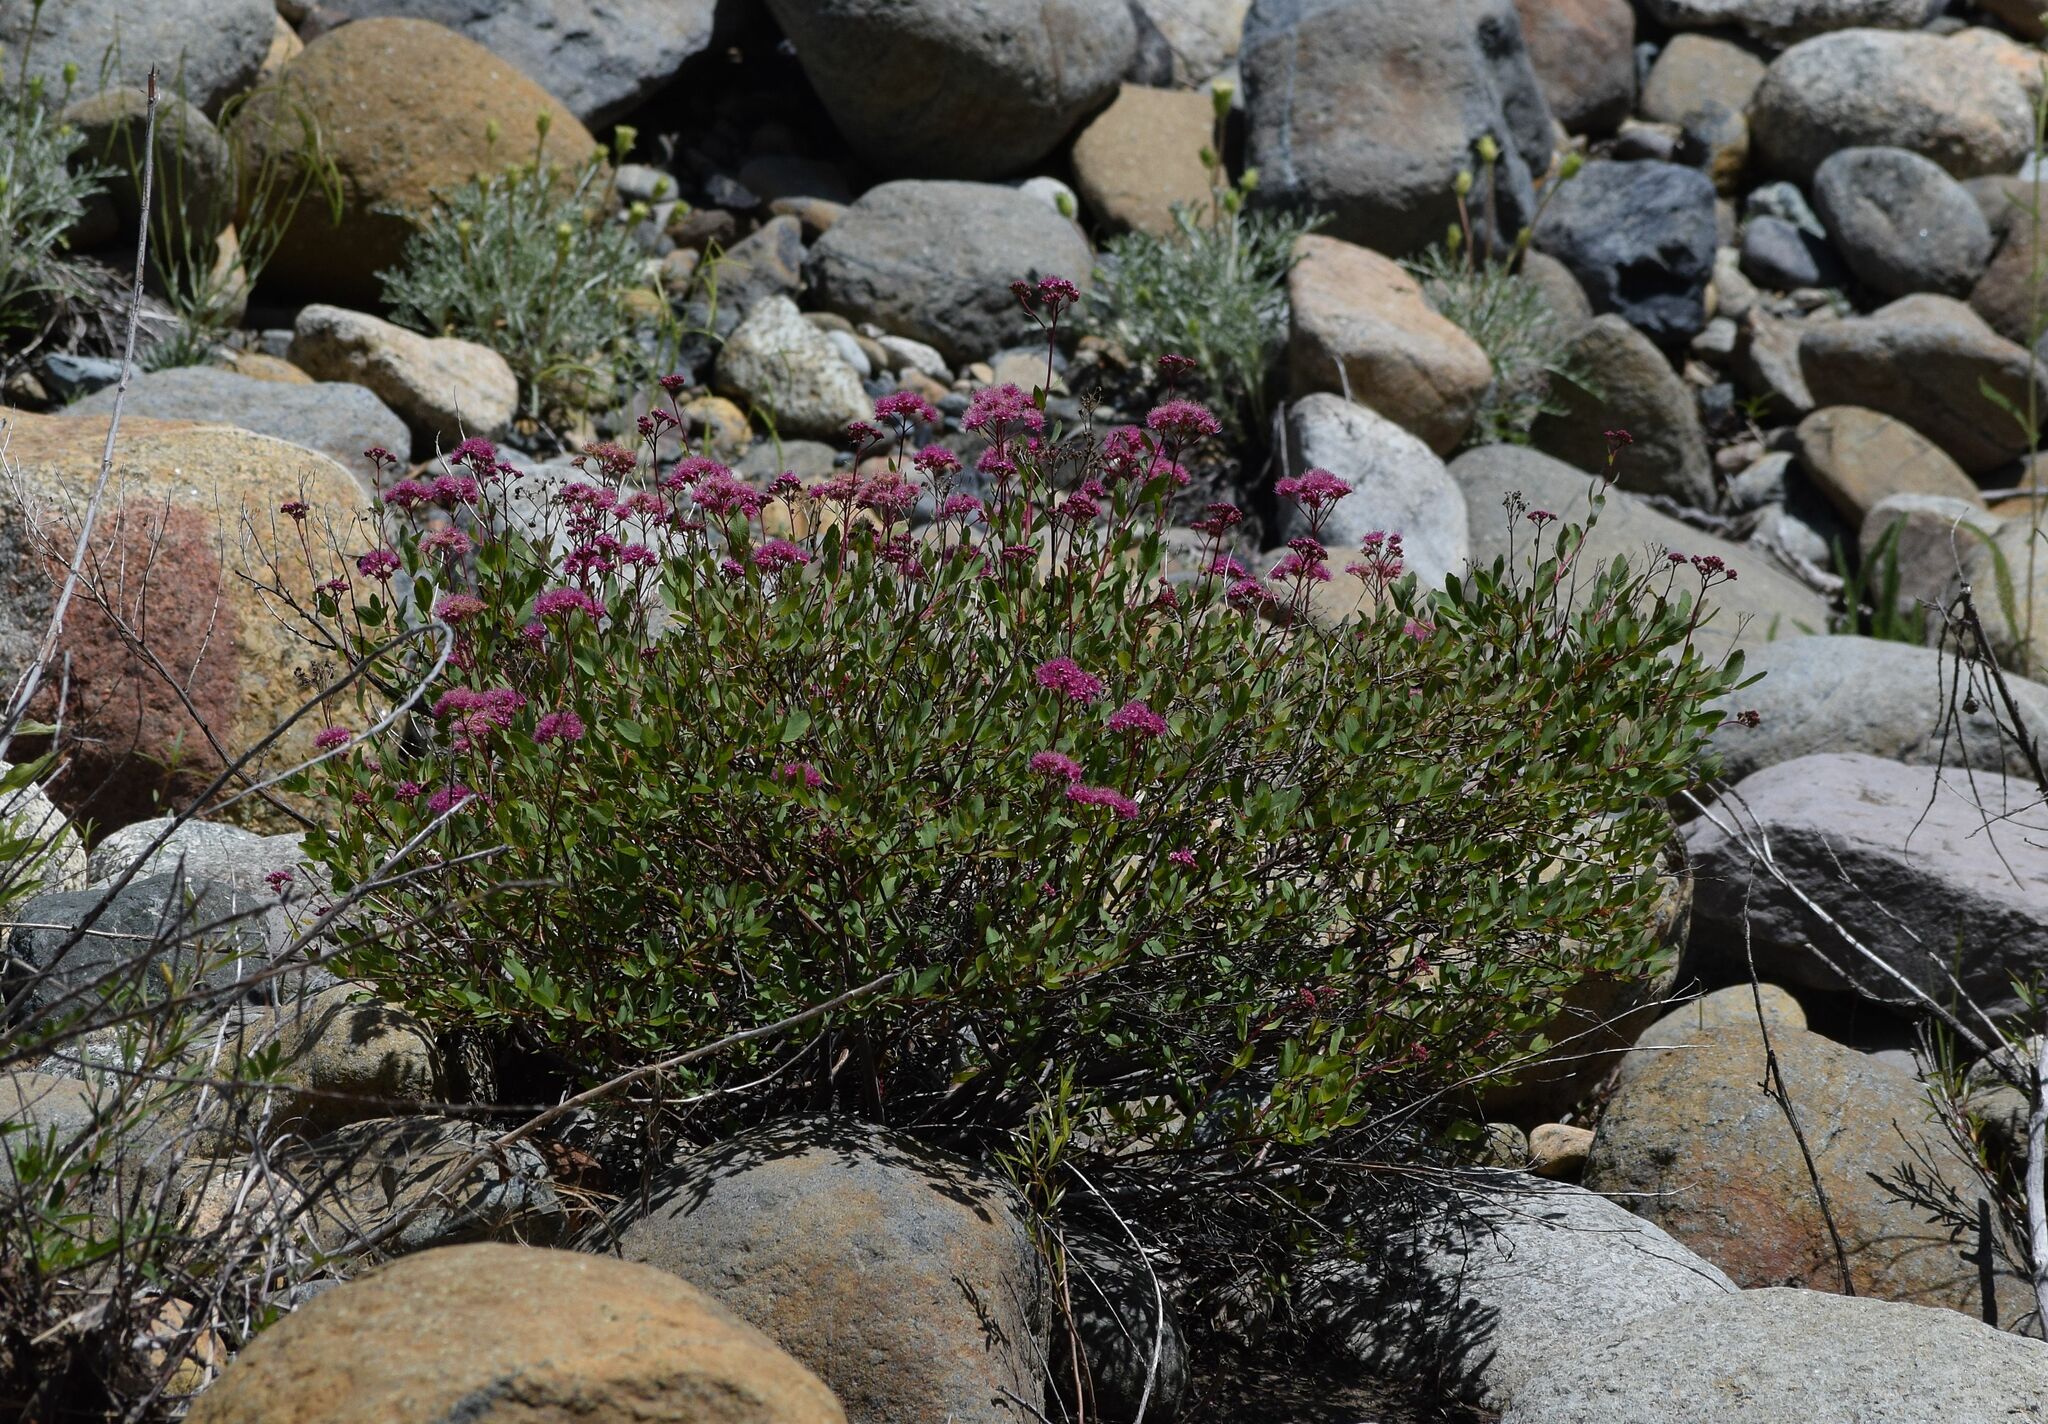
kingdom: Plantae
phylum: Tracheophyta
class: Magnoliopsida
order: Rosales
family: Rosaceae
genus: Spiraea
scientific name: Spiraea splendens
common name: Subalpine meadowsweet
